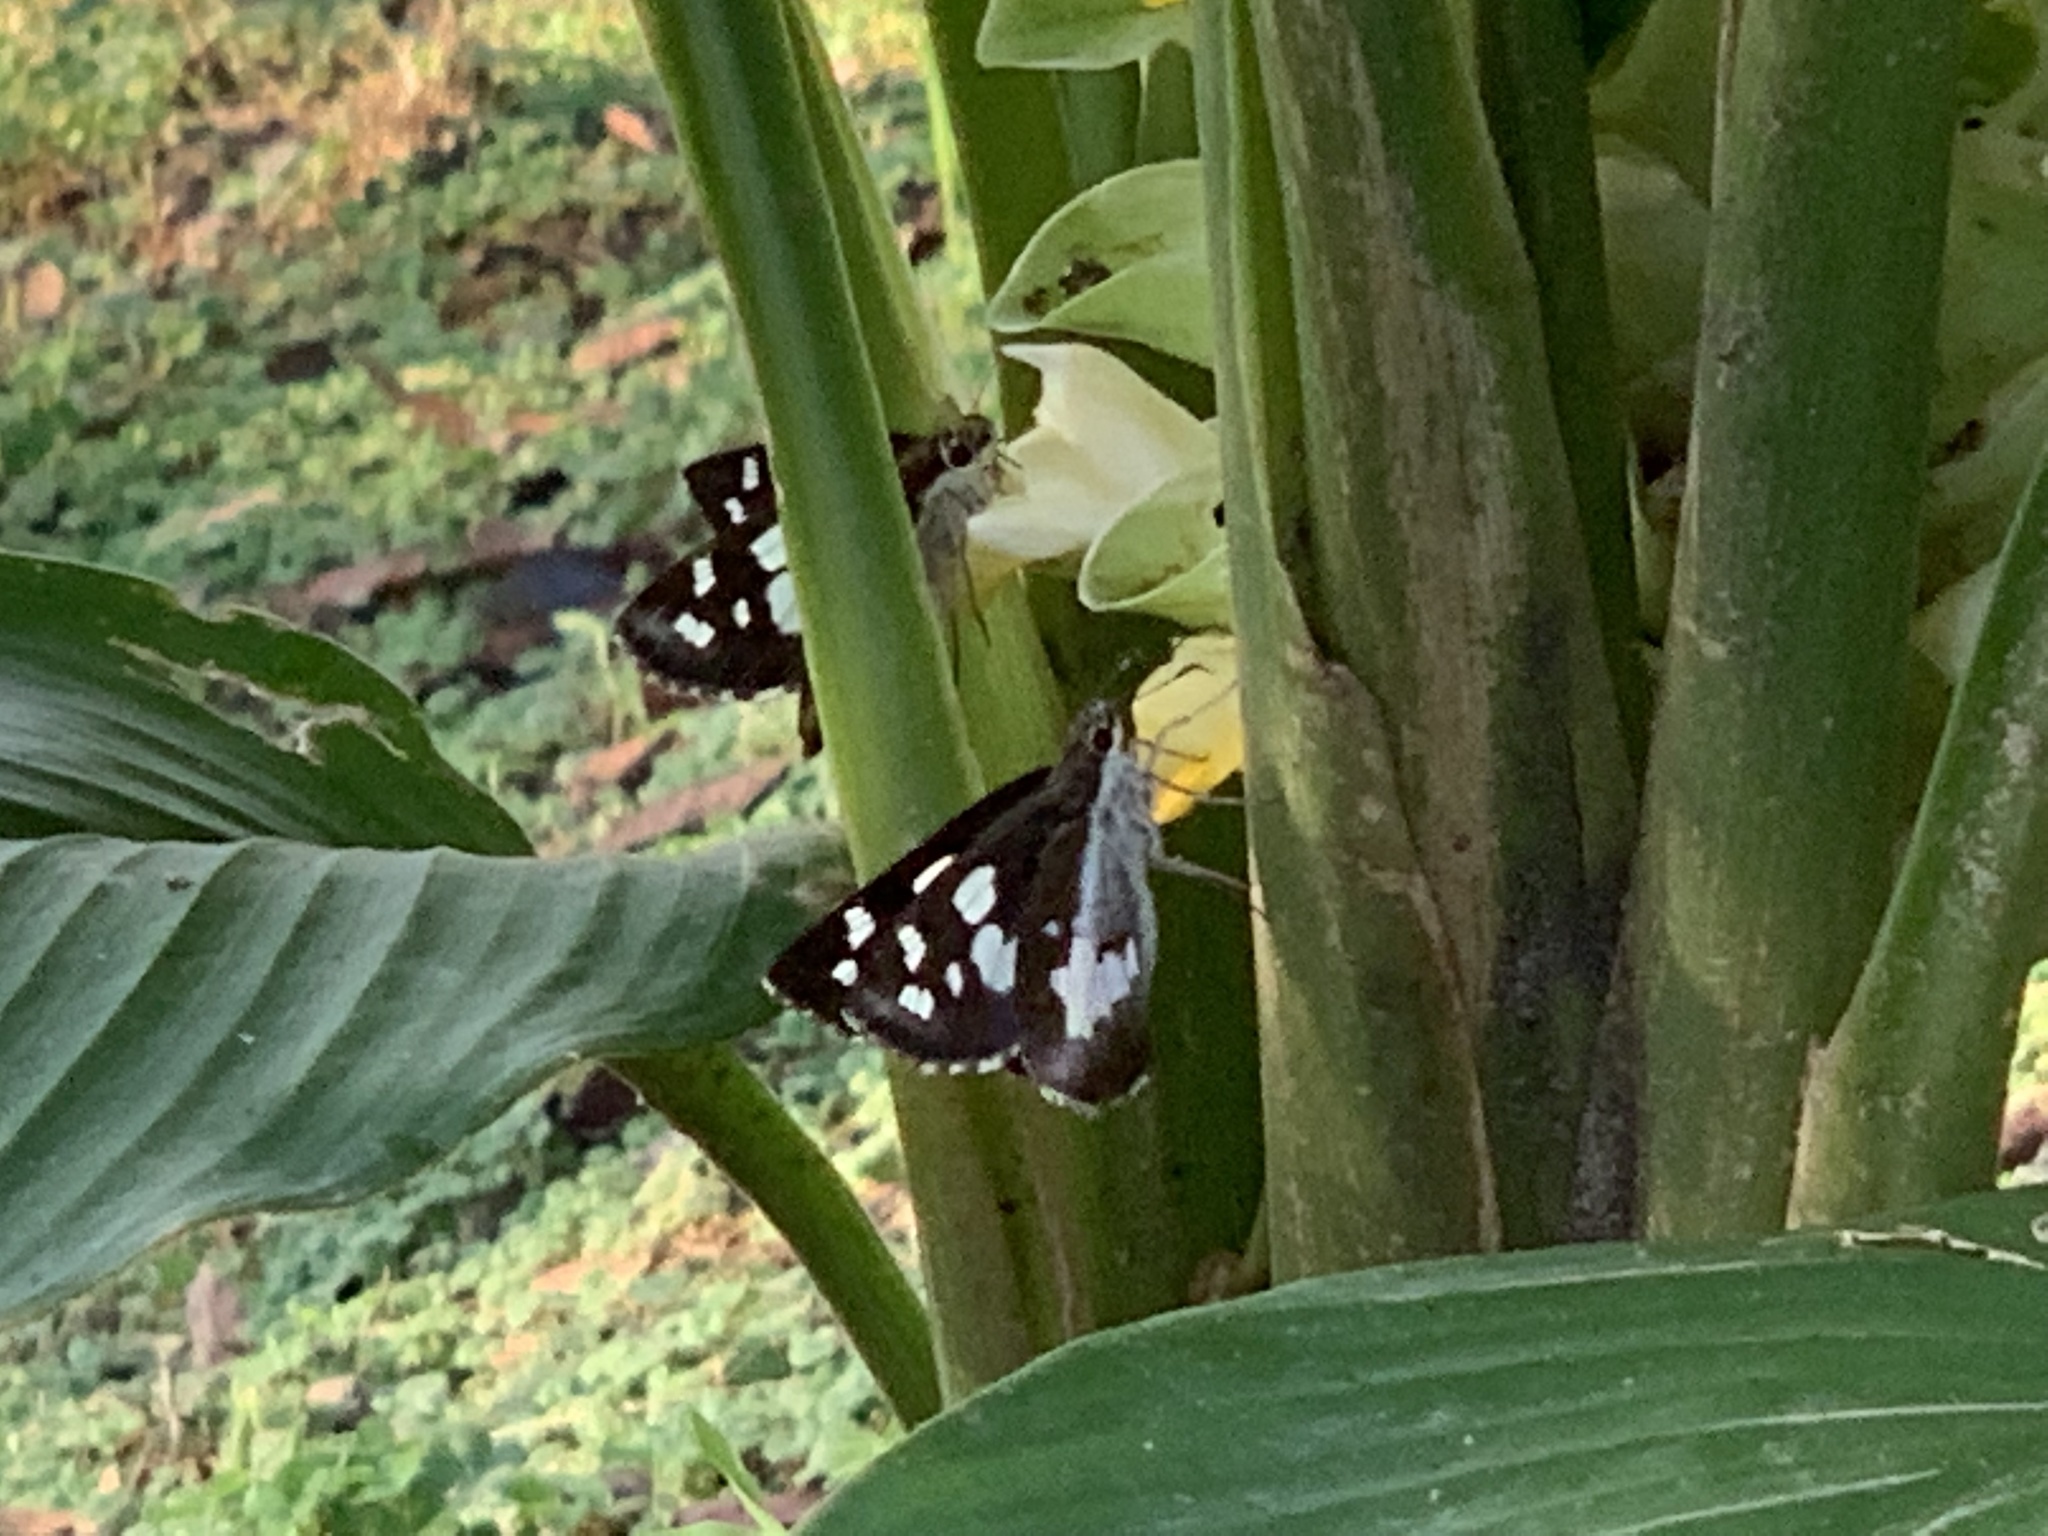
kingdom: Animalia
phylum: Arthropoda
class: Insecta
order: Lepidoptera
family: Hesperiidae
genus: Udaspes
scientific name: Udaspes folus
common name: Grass demon
